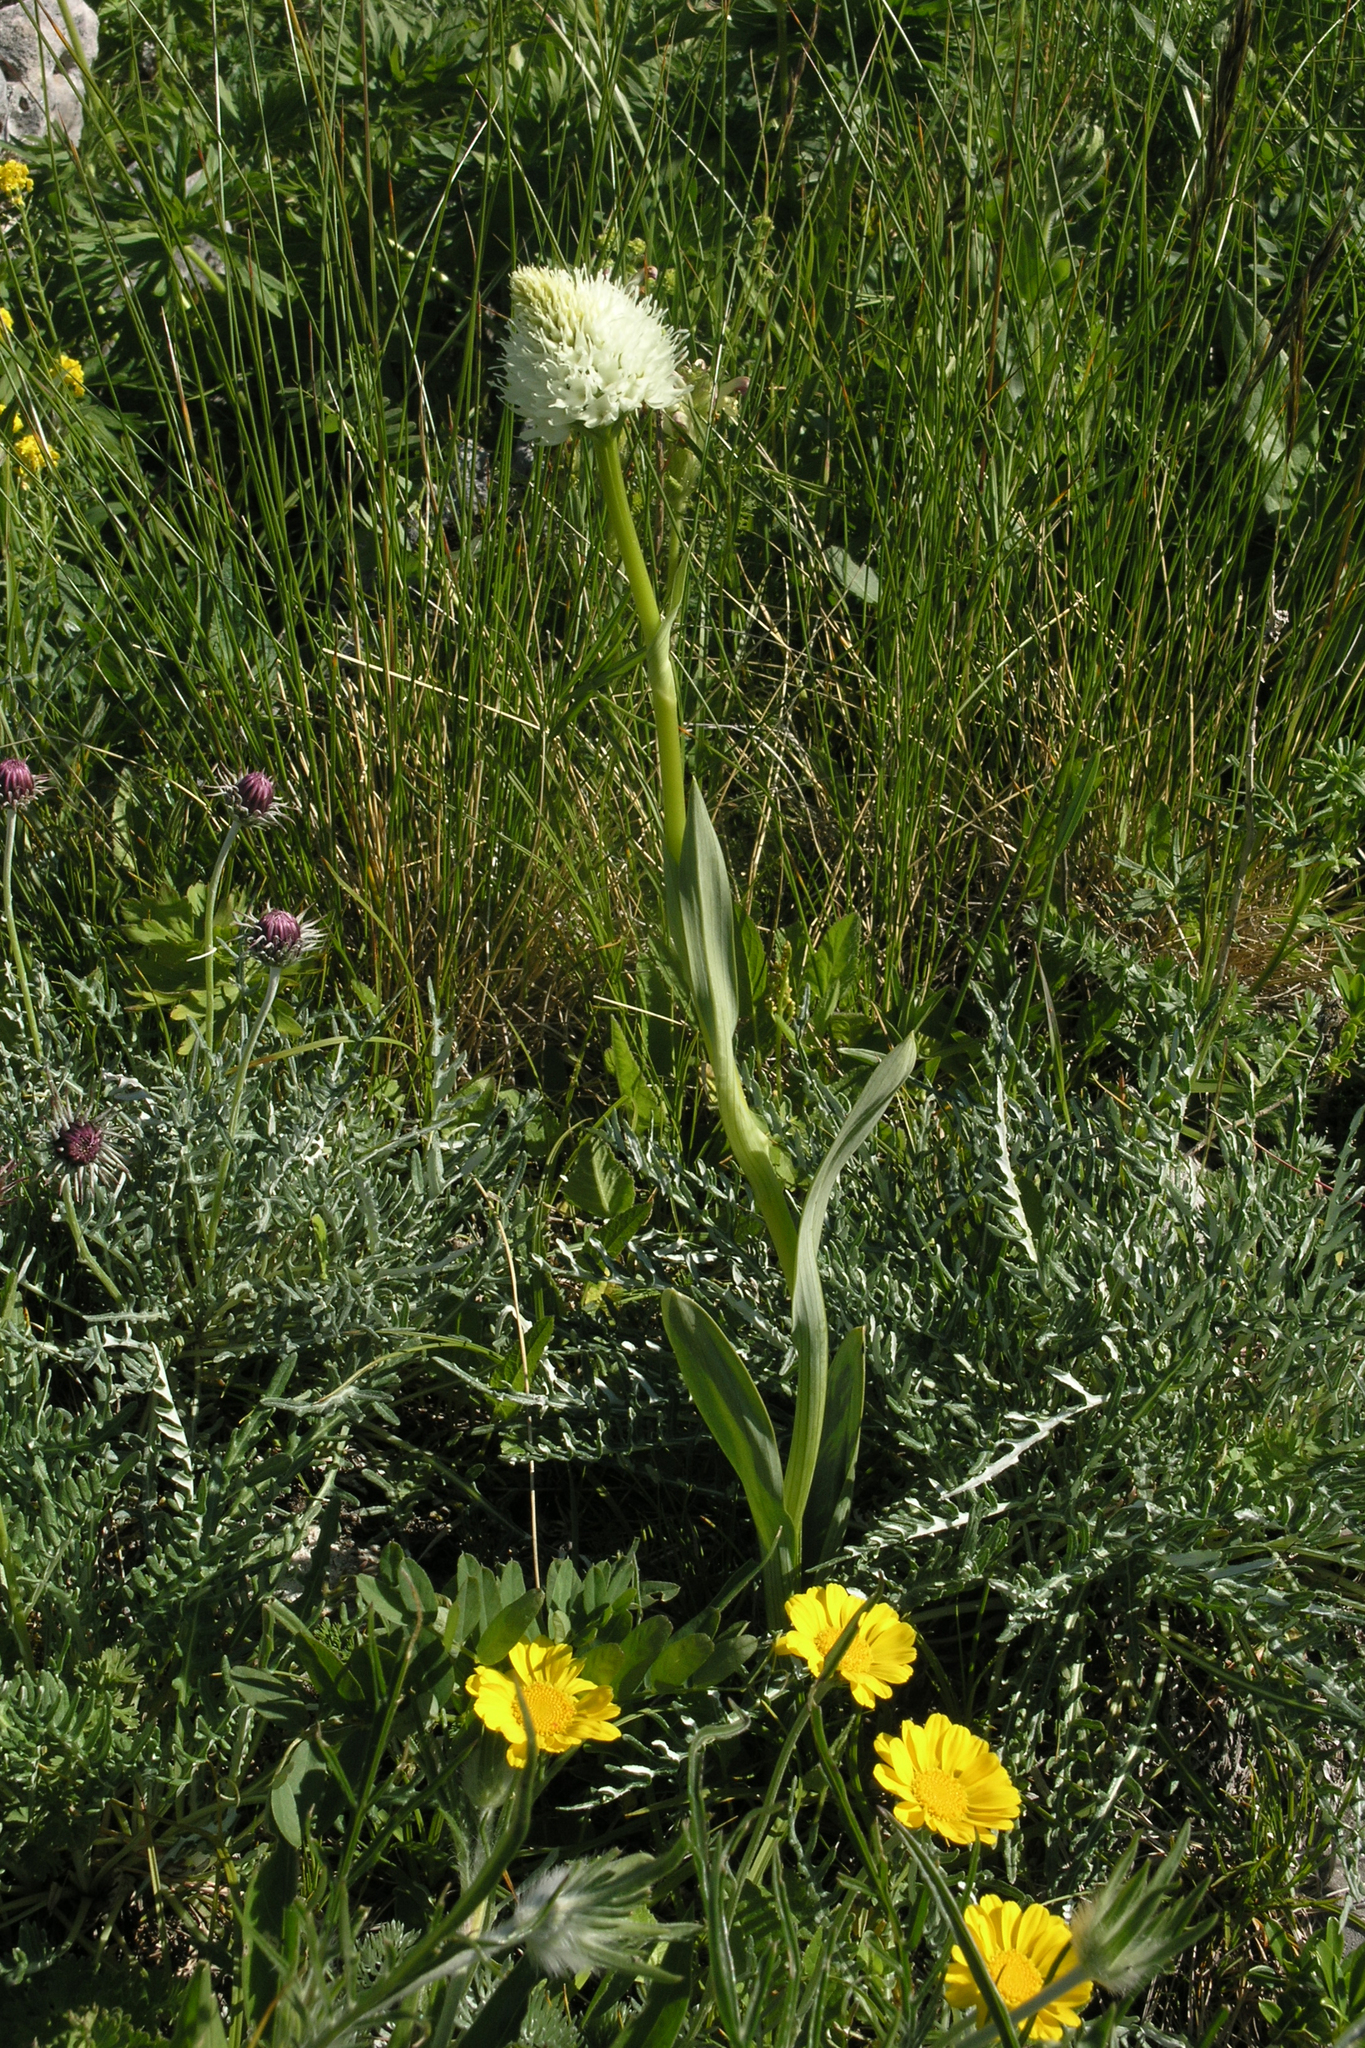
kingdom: Plantae
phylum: Tracheophyta
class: Liliopsida
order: Asparagales
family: Orchidaceae
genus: Traunsteinera
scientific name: Traunsteinera sphaerica
